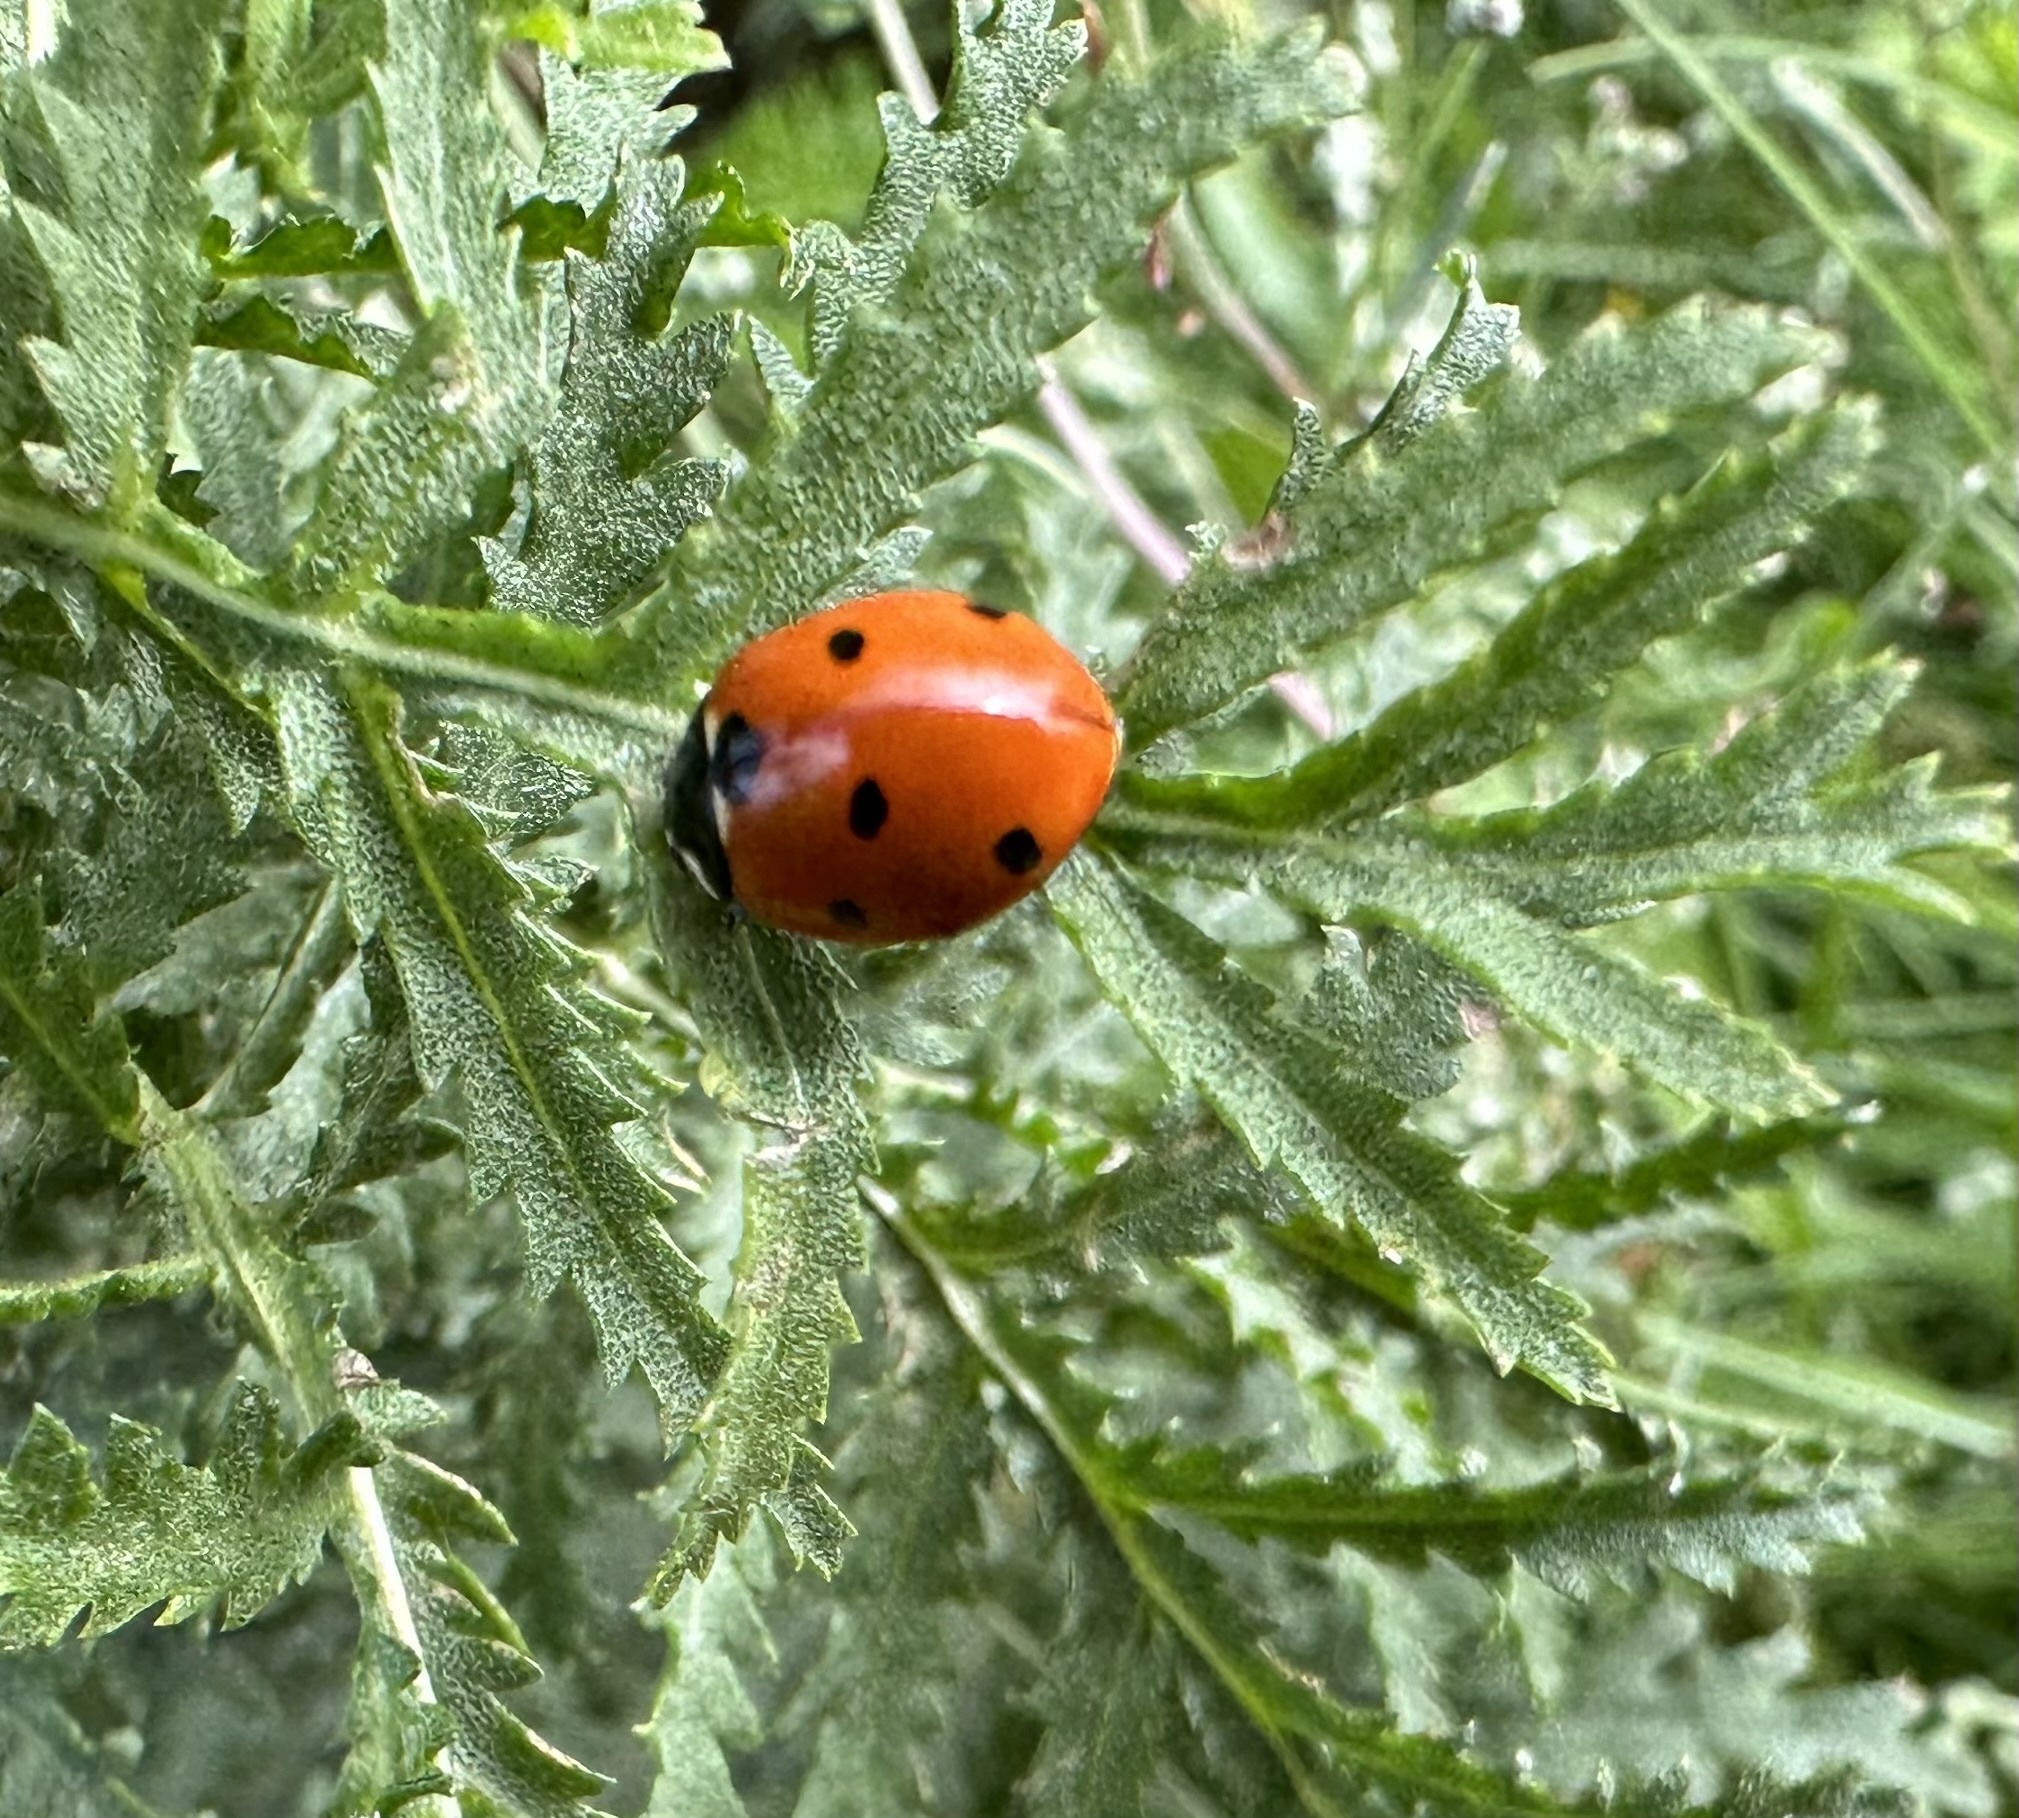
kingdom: Animalia
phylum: Arthropoda
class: Insecta
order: Coleoptera
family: Coccinellidae
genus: Coccinella
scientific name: Coccinella septempunctata
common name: Sevenspotted lady beetle
